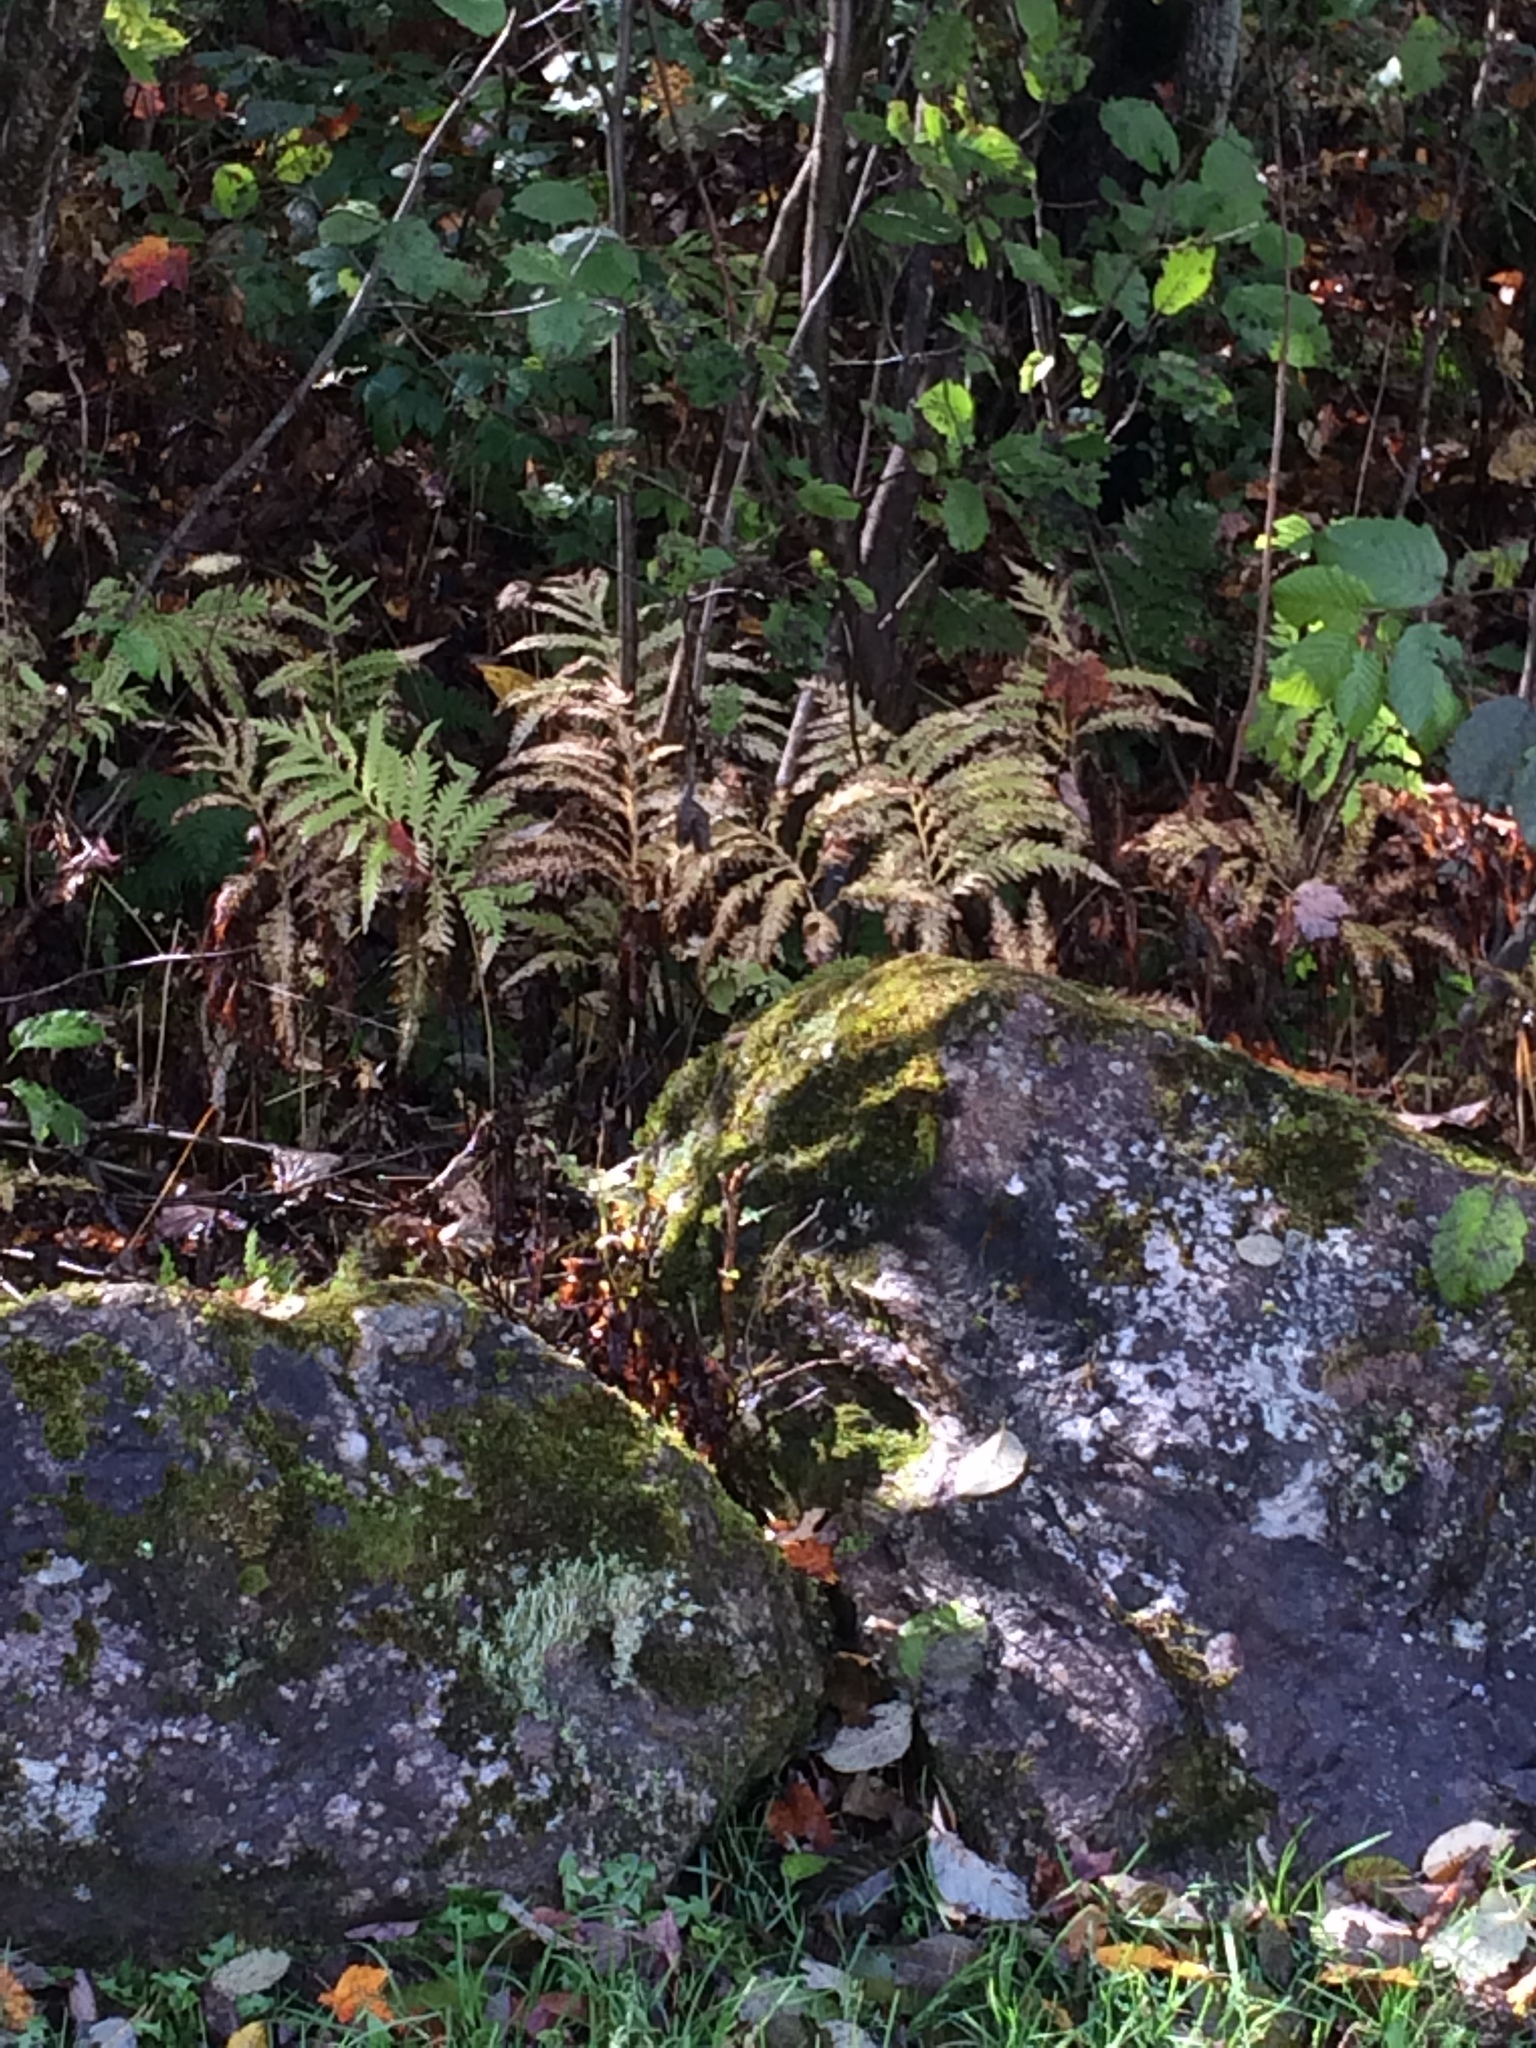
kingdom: Plantae
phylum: Tracheophyta
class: Polypodiopsida
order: Polypodiales
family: Onocleaceae
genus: Onoclea
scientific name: Onoclea sensibilis
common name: Sensitive fern
